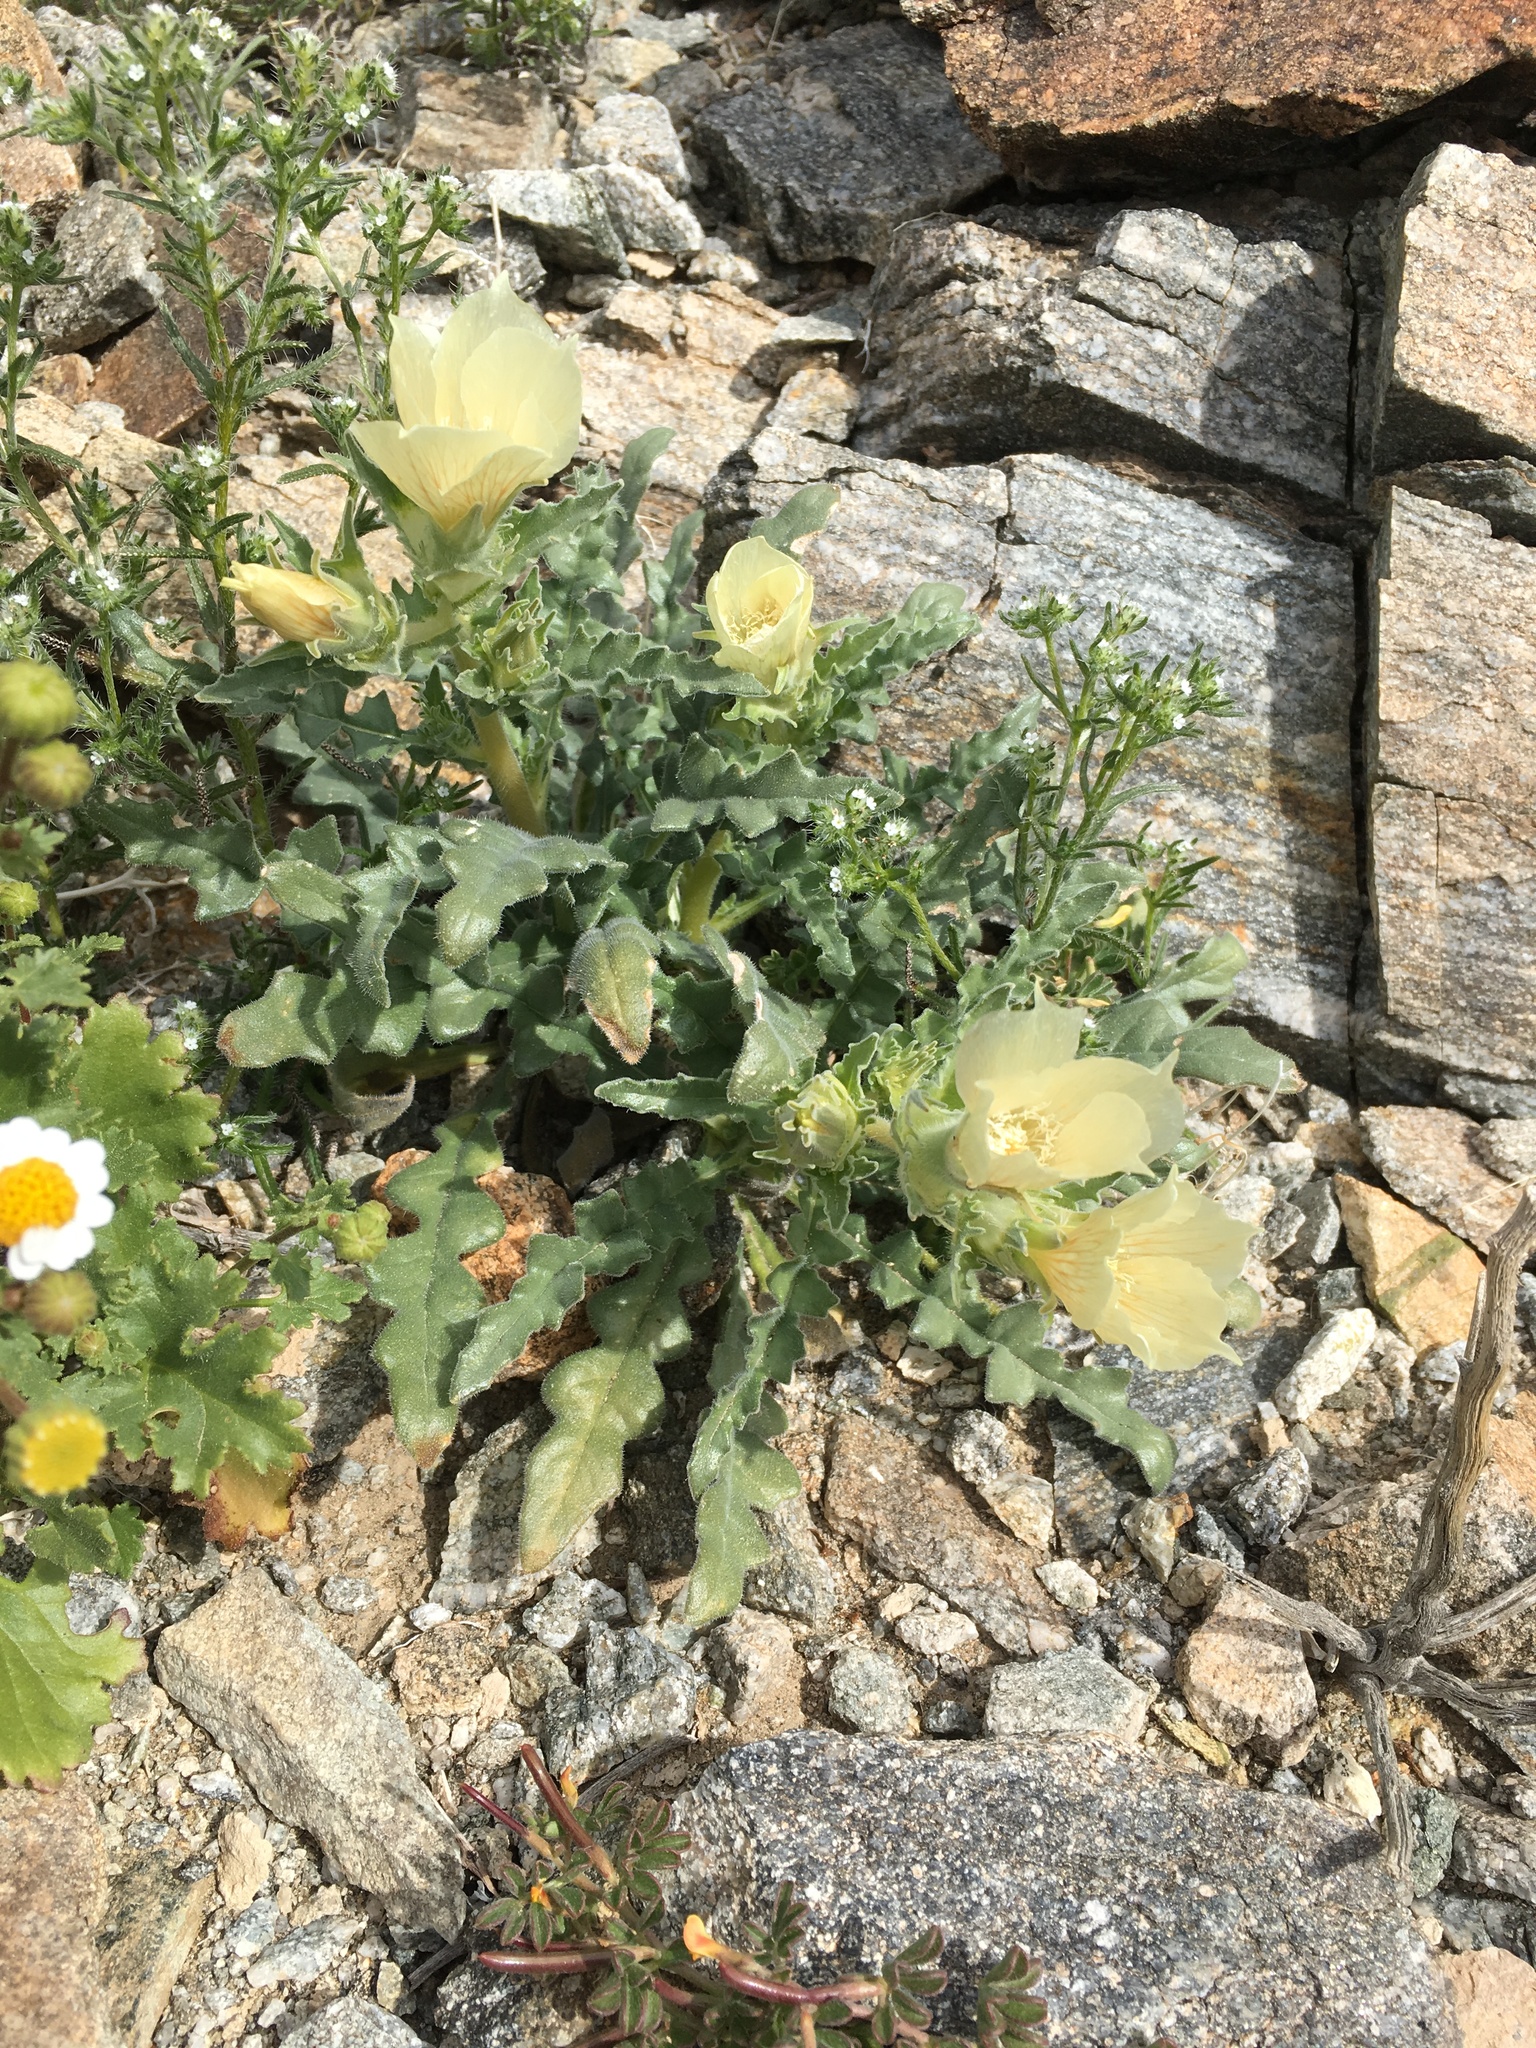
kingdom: Plantae
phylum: Tracheophyta
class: Magnoliopsida
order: Cornales
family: Loasaceae
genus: Mentzelia
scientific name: Mentzelia involucrata
